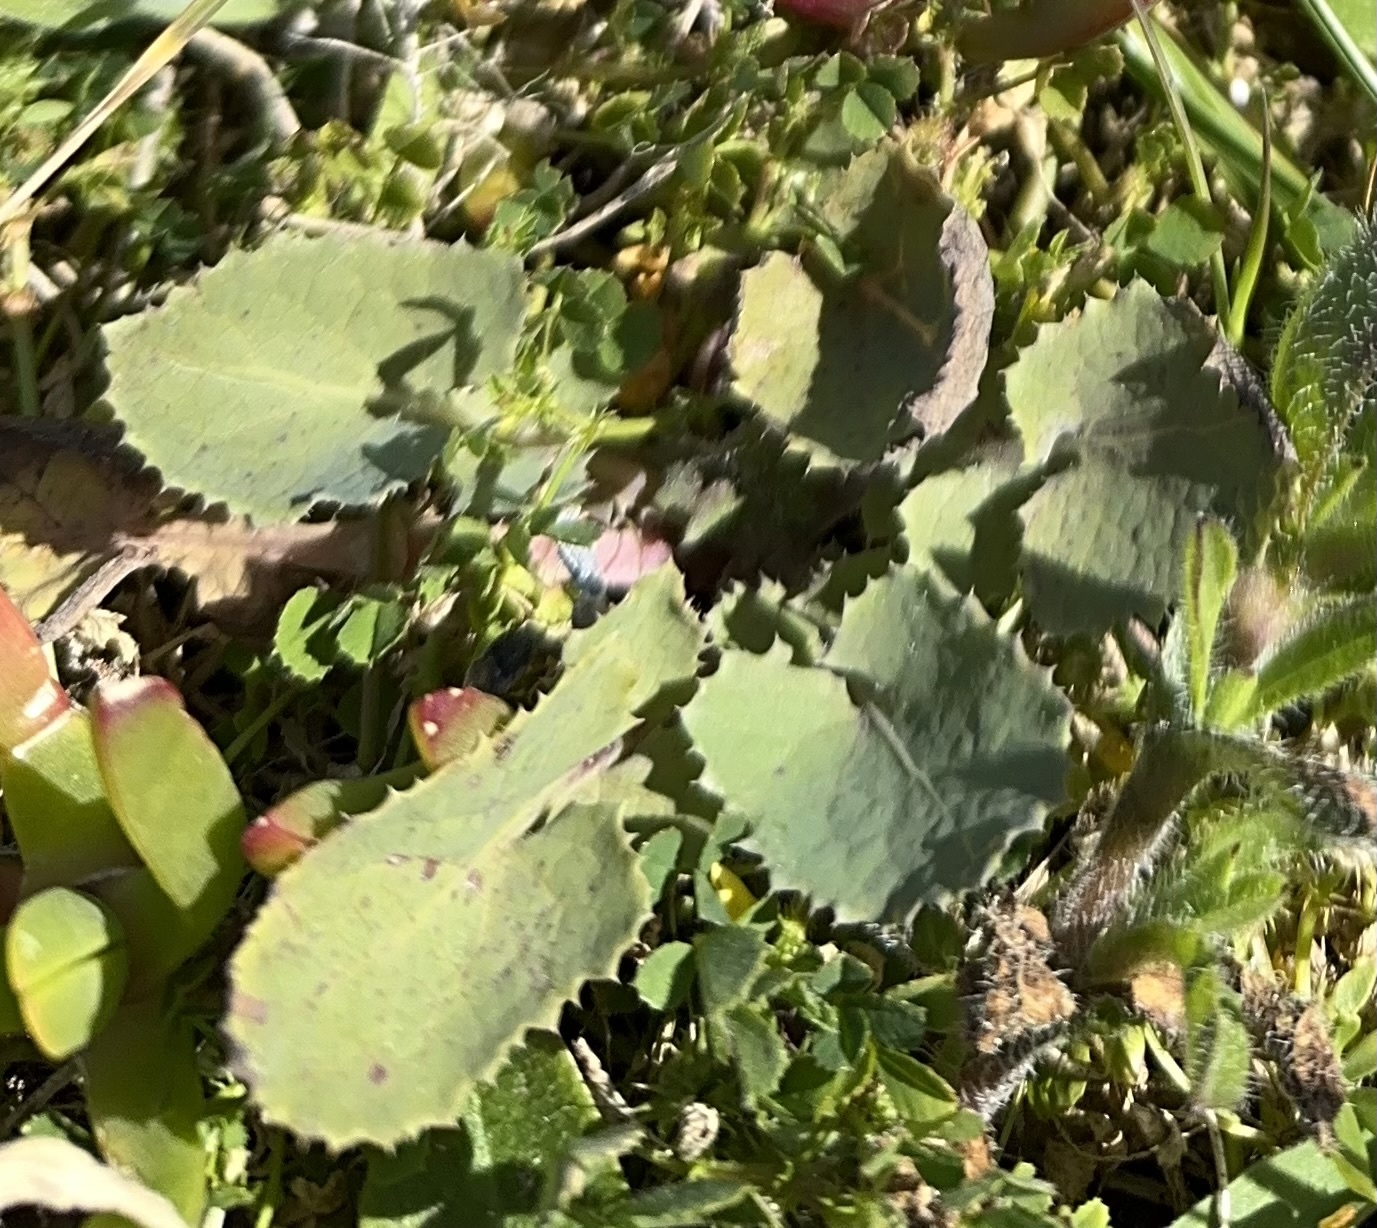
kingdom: Plantae
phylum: Tracheophyta
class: Magnoliopsida
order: Asterales
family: Asteraceae
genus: Sonchus
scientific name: Sonchus oleraceus
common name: Common sowthistle
